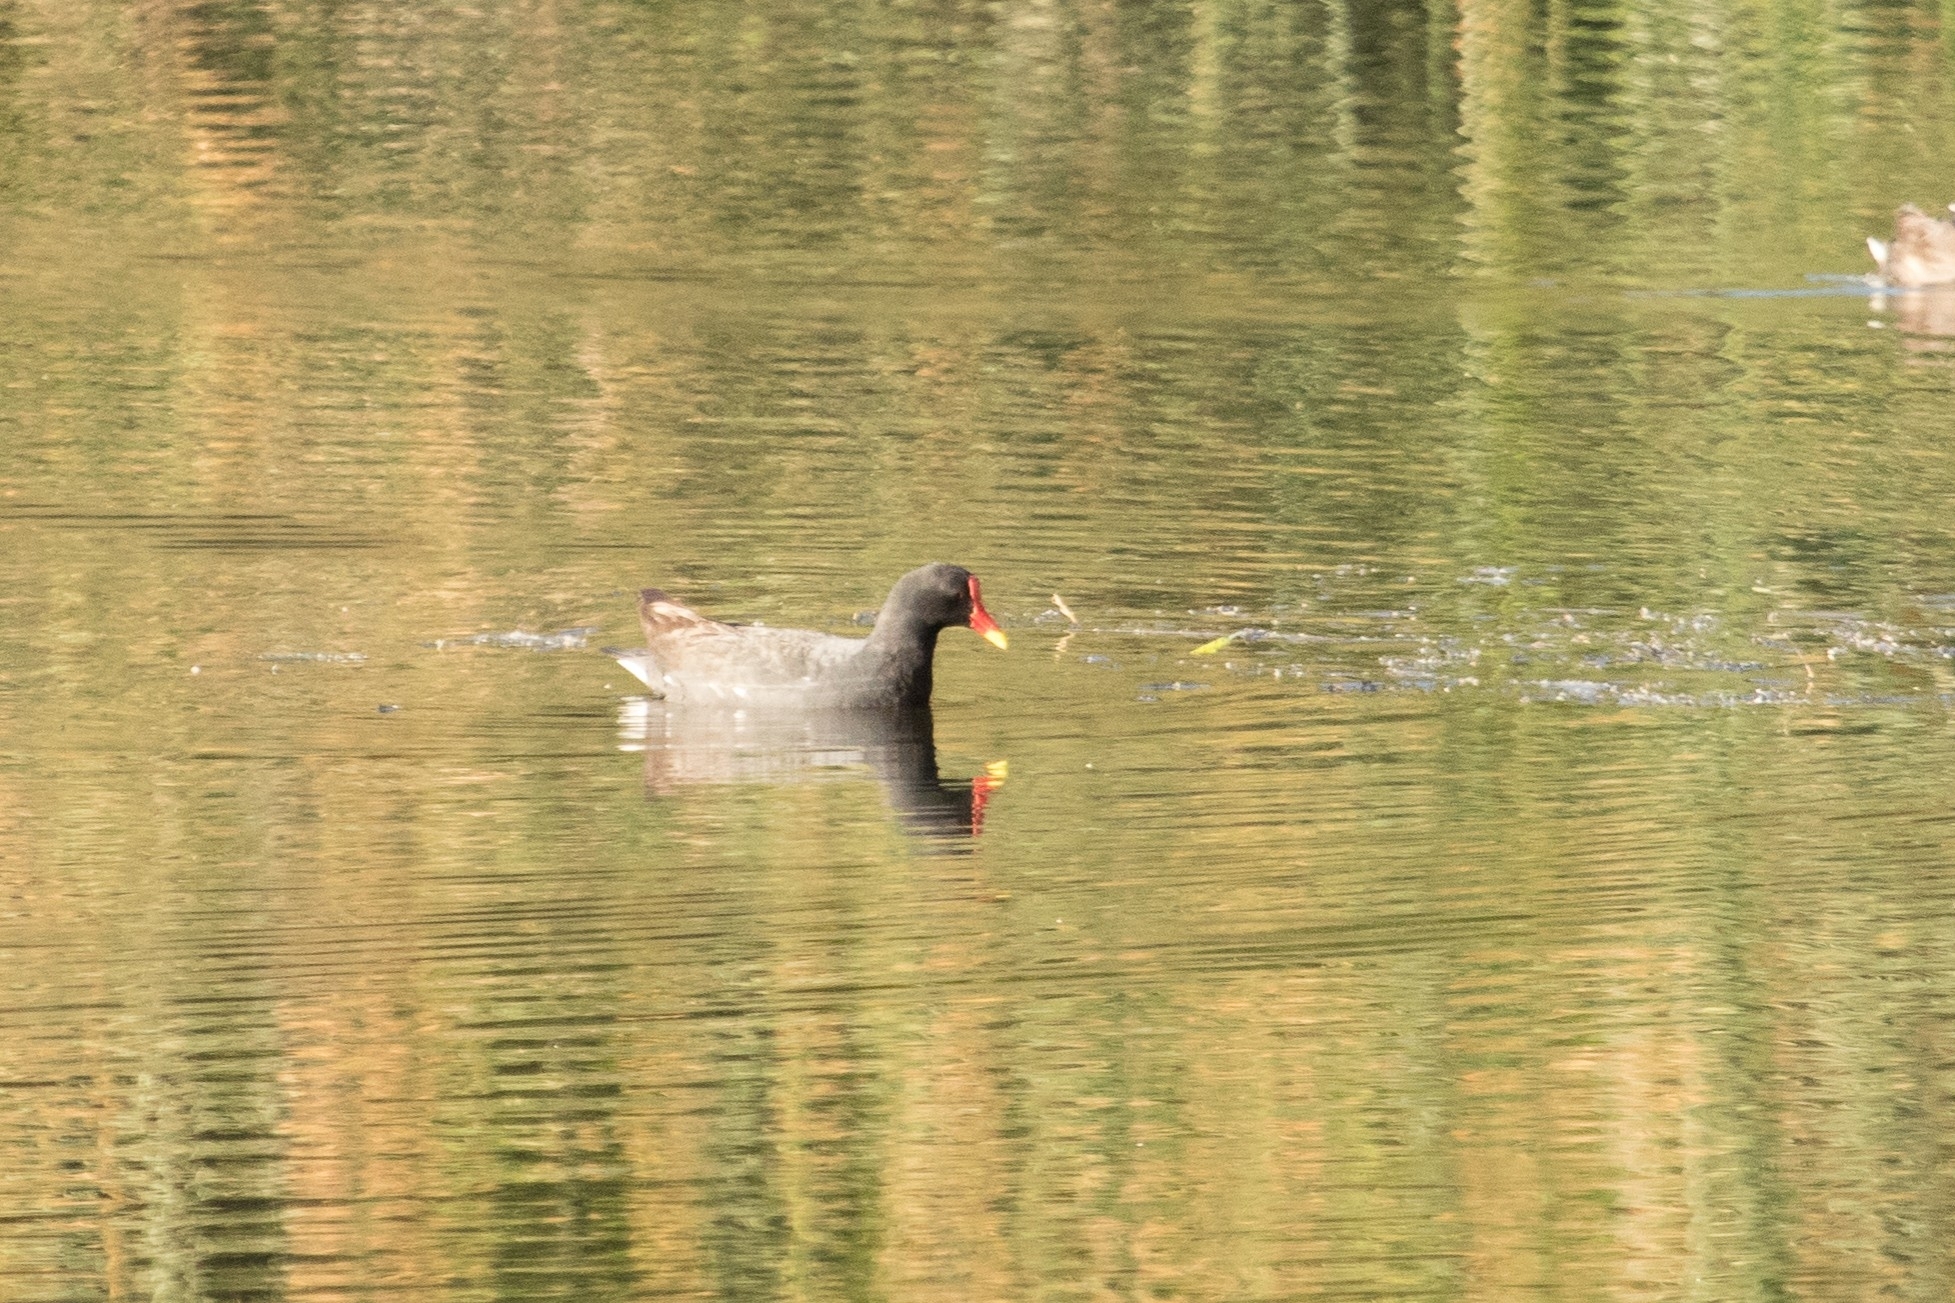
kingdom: Animalia
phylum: Chordata
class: Aves
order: Gruiformes
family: Rallidae
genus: Gallinula
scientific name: Gallinula chloropus
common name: Common moorhen
